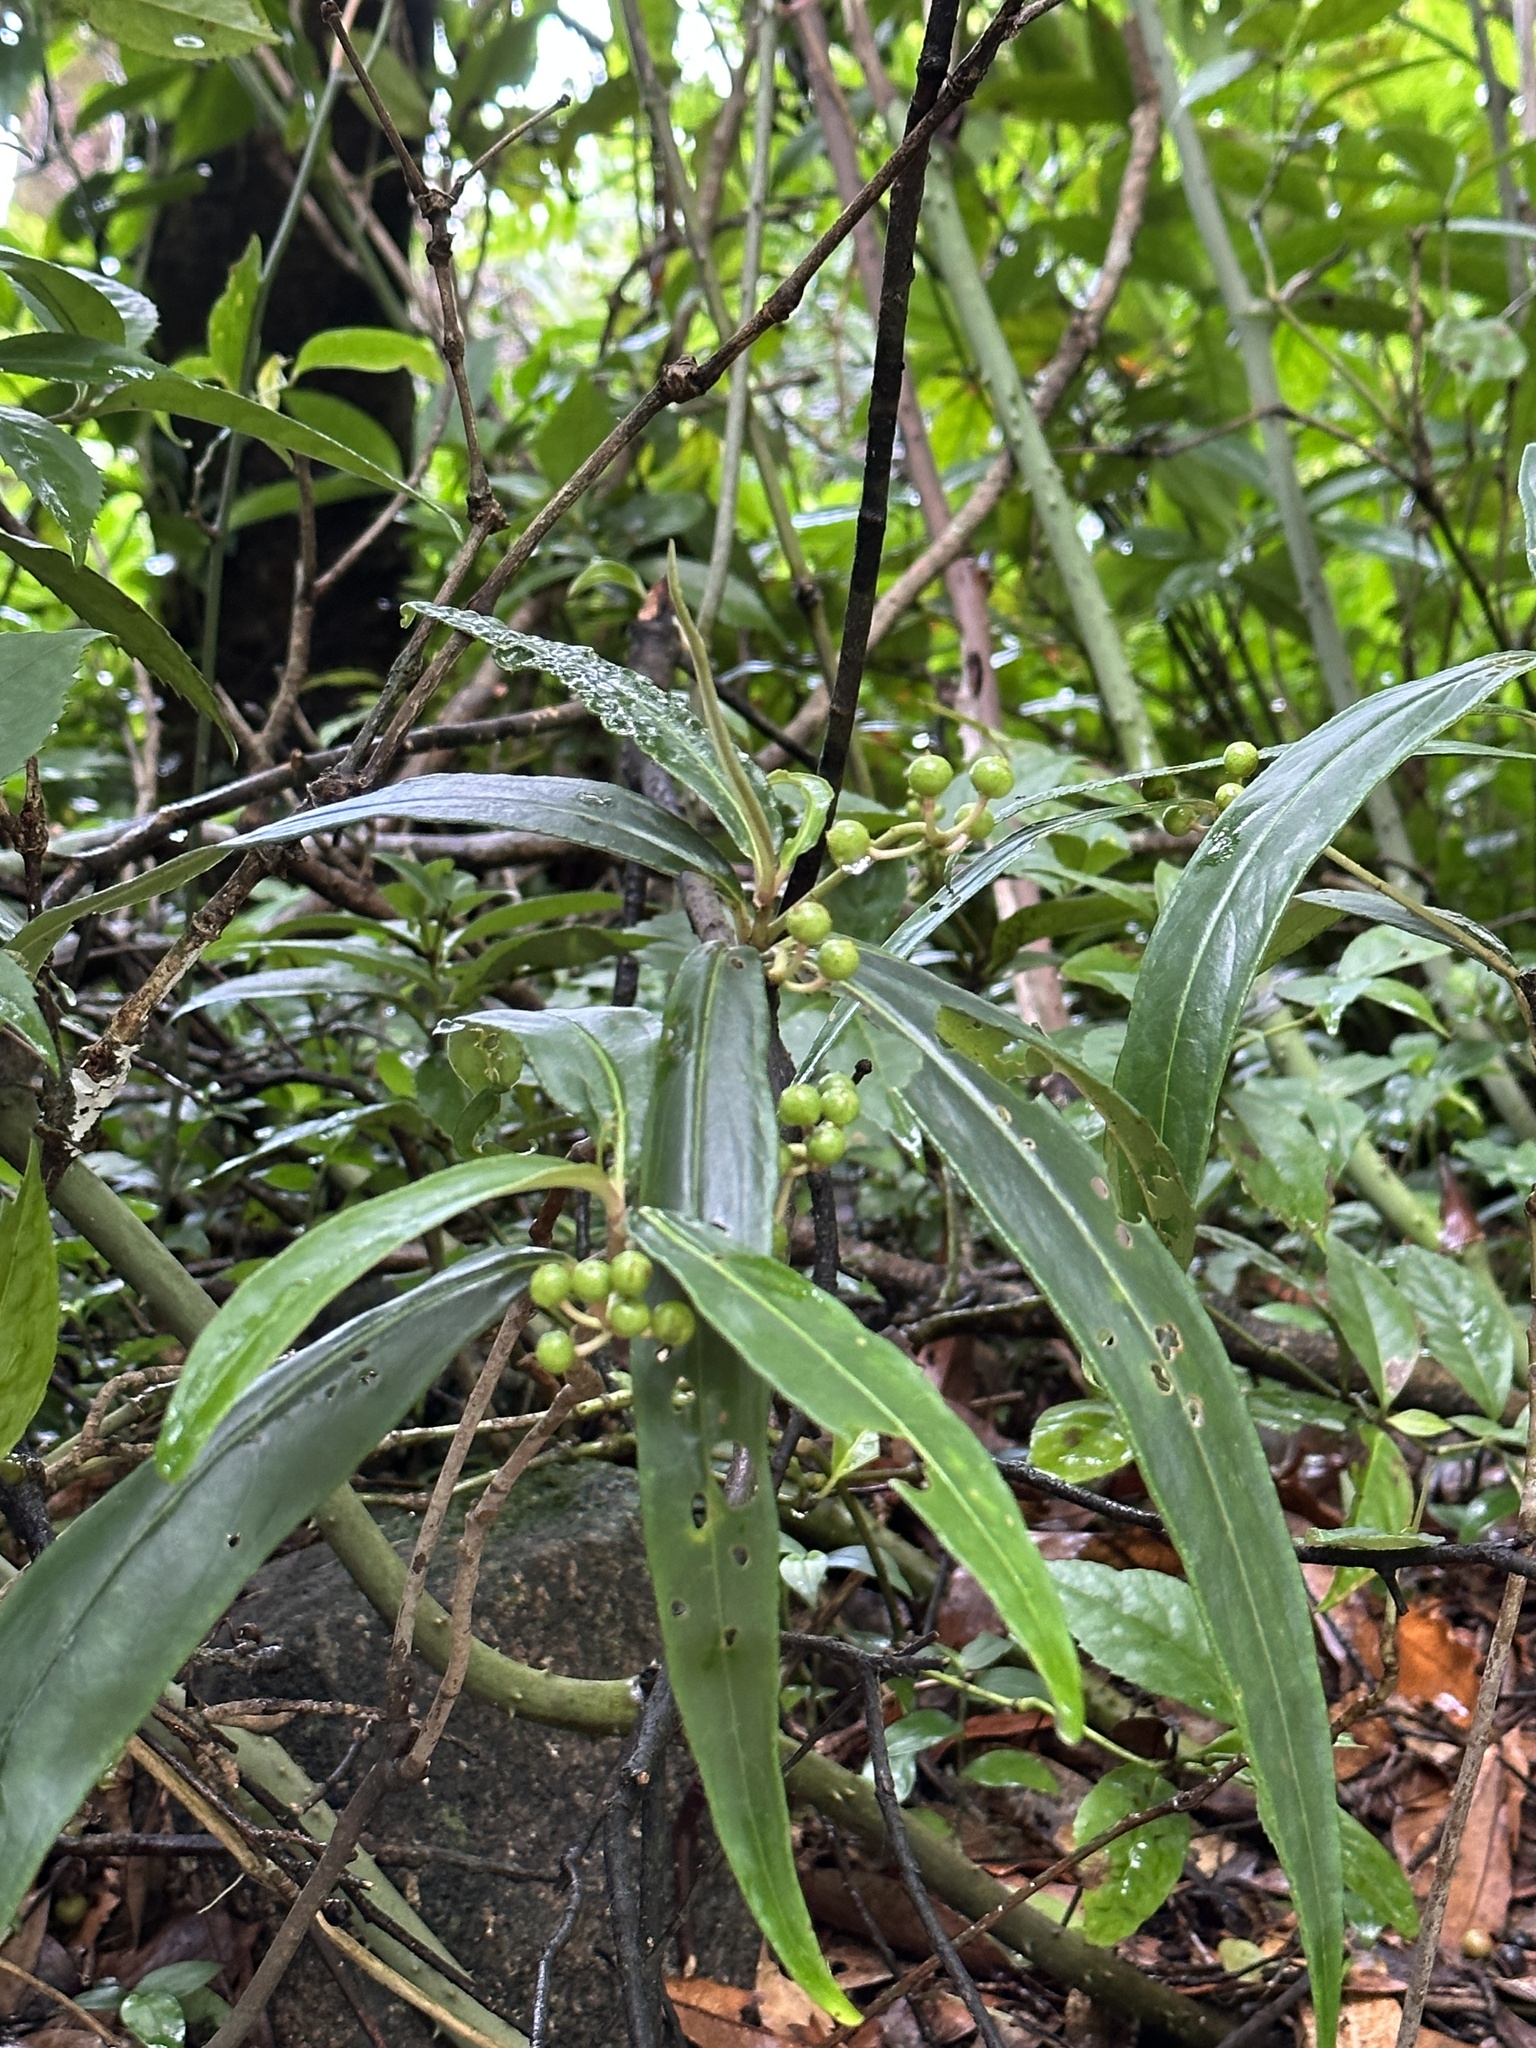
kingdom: Plantae
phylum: Tracheophyta
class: Magnoliopsida
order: Ericales
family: Primulaceae
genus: Ardisia
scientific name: Ardisia crispa
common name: Japanese-holly
